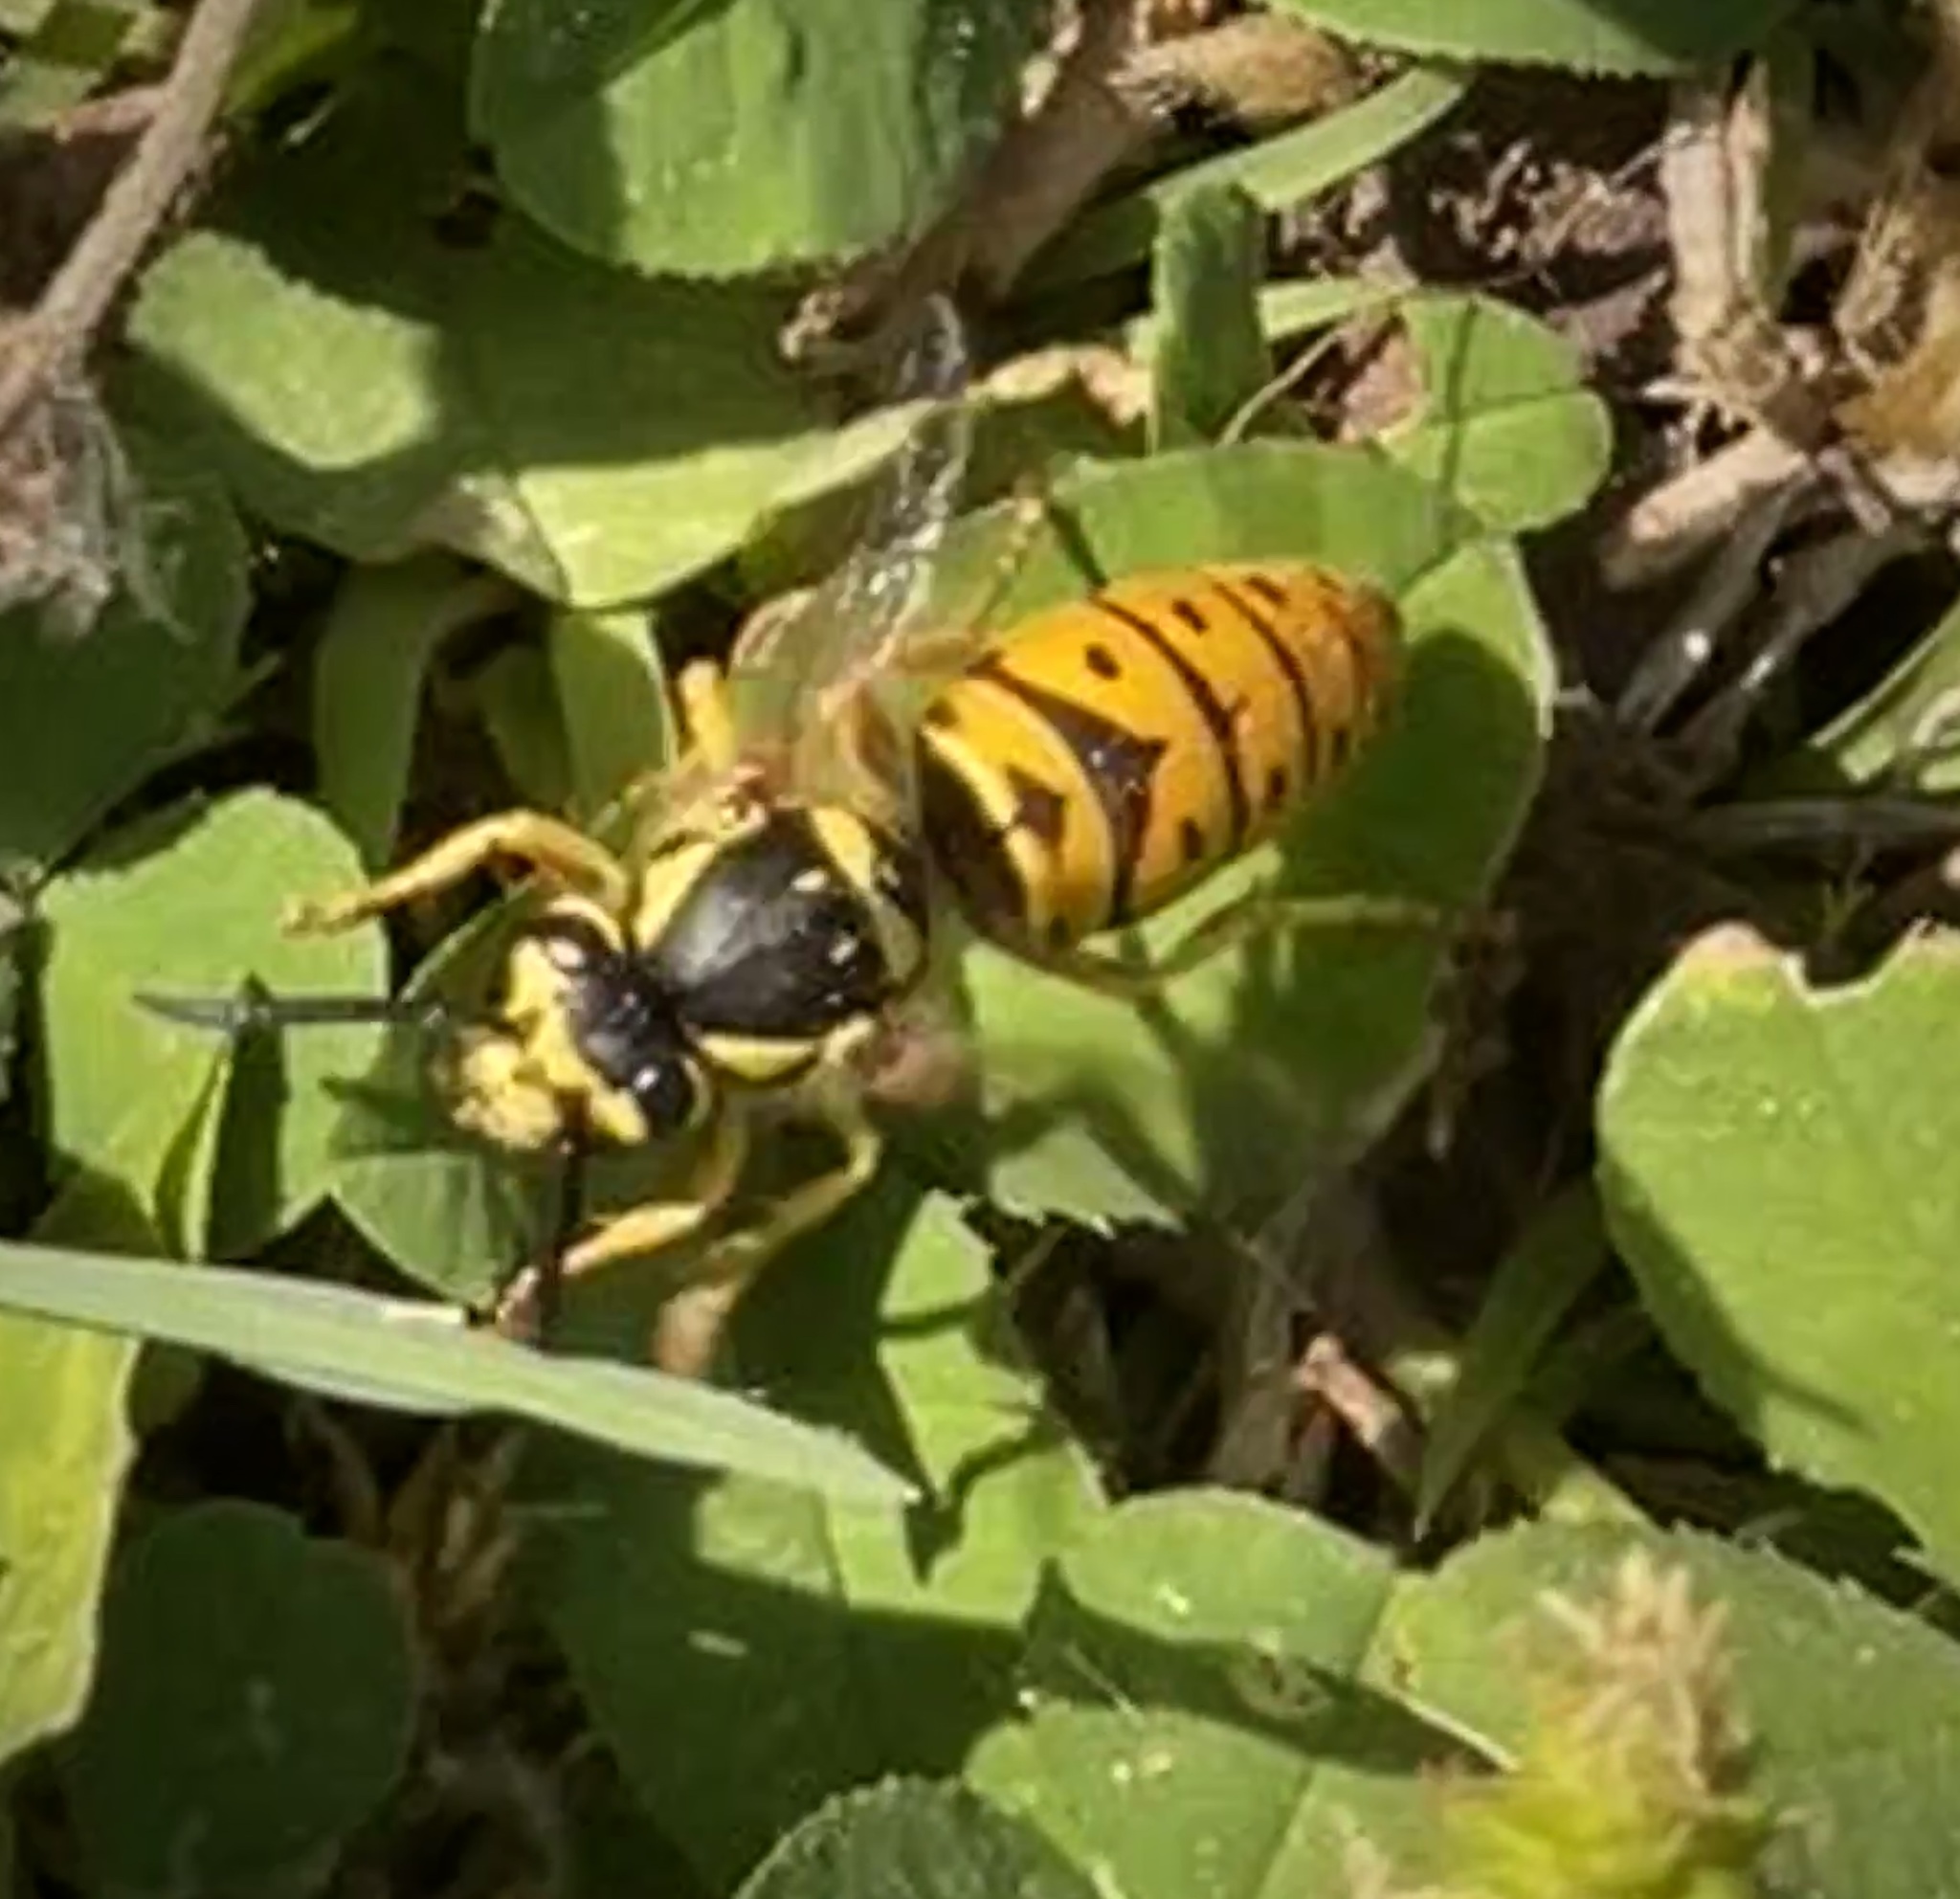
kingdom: Animalia
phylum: Arthropoda
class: Insecta
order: Hymenoptera
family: Vespidae
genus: Vespula
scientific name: Vespula maculifrons
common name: Eastern yellowjacket
